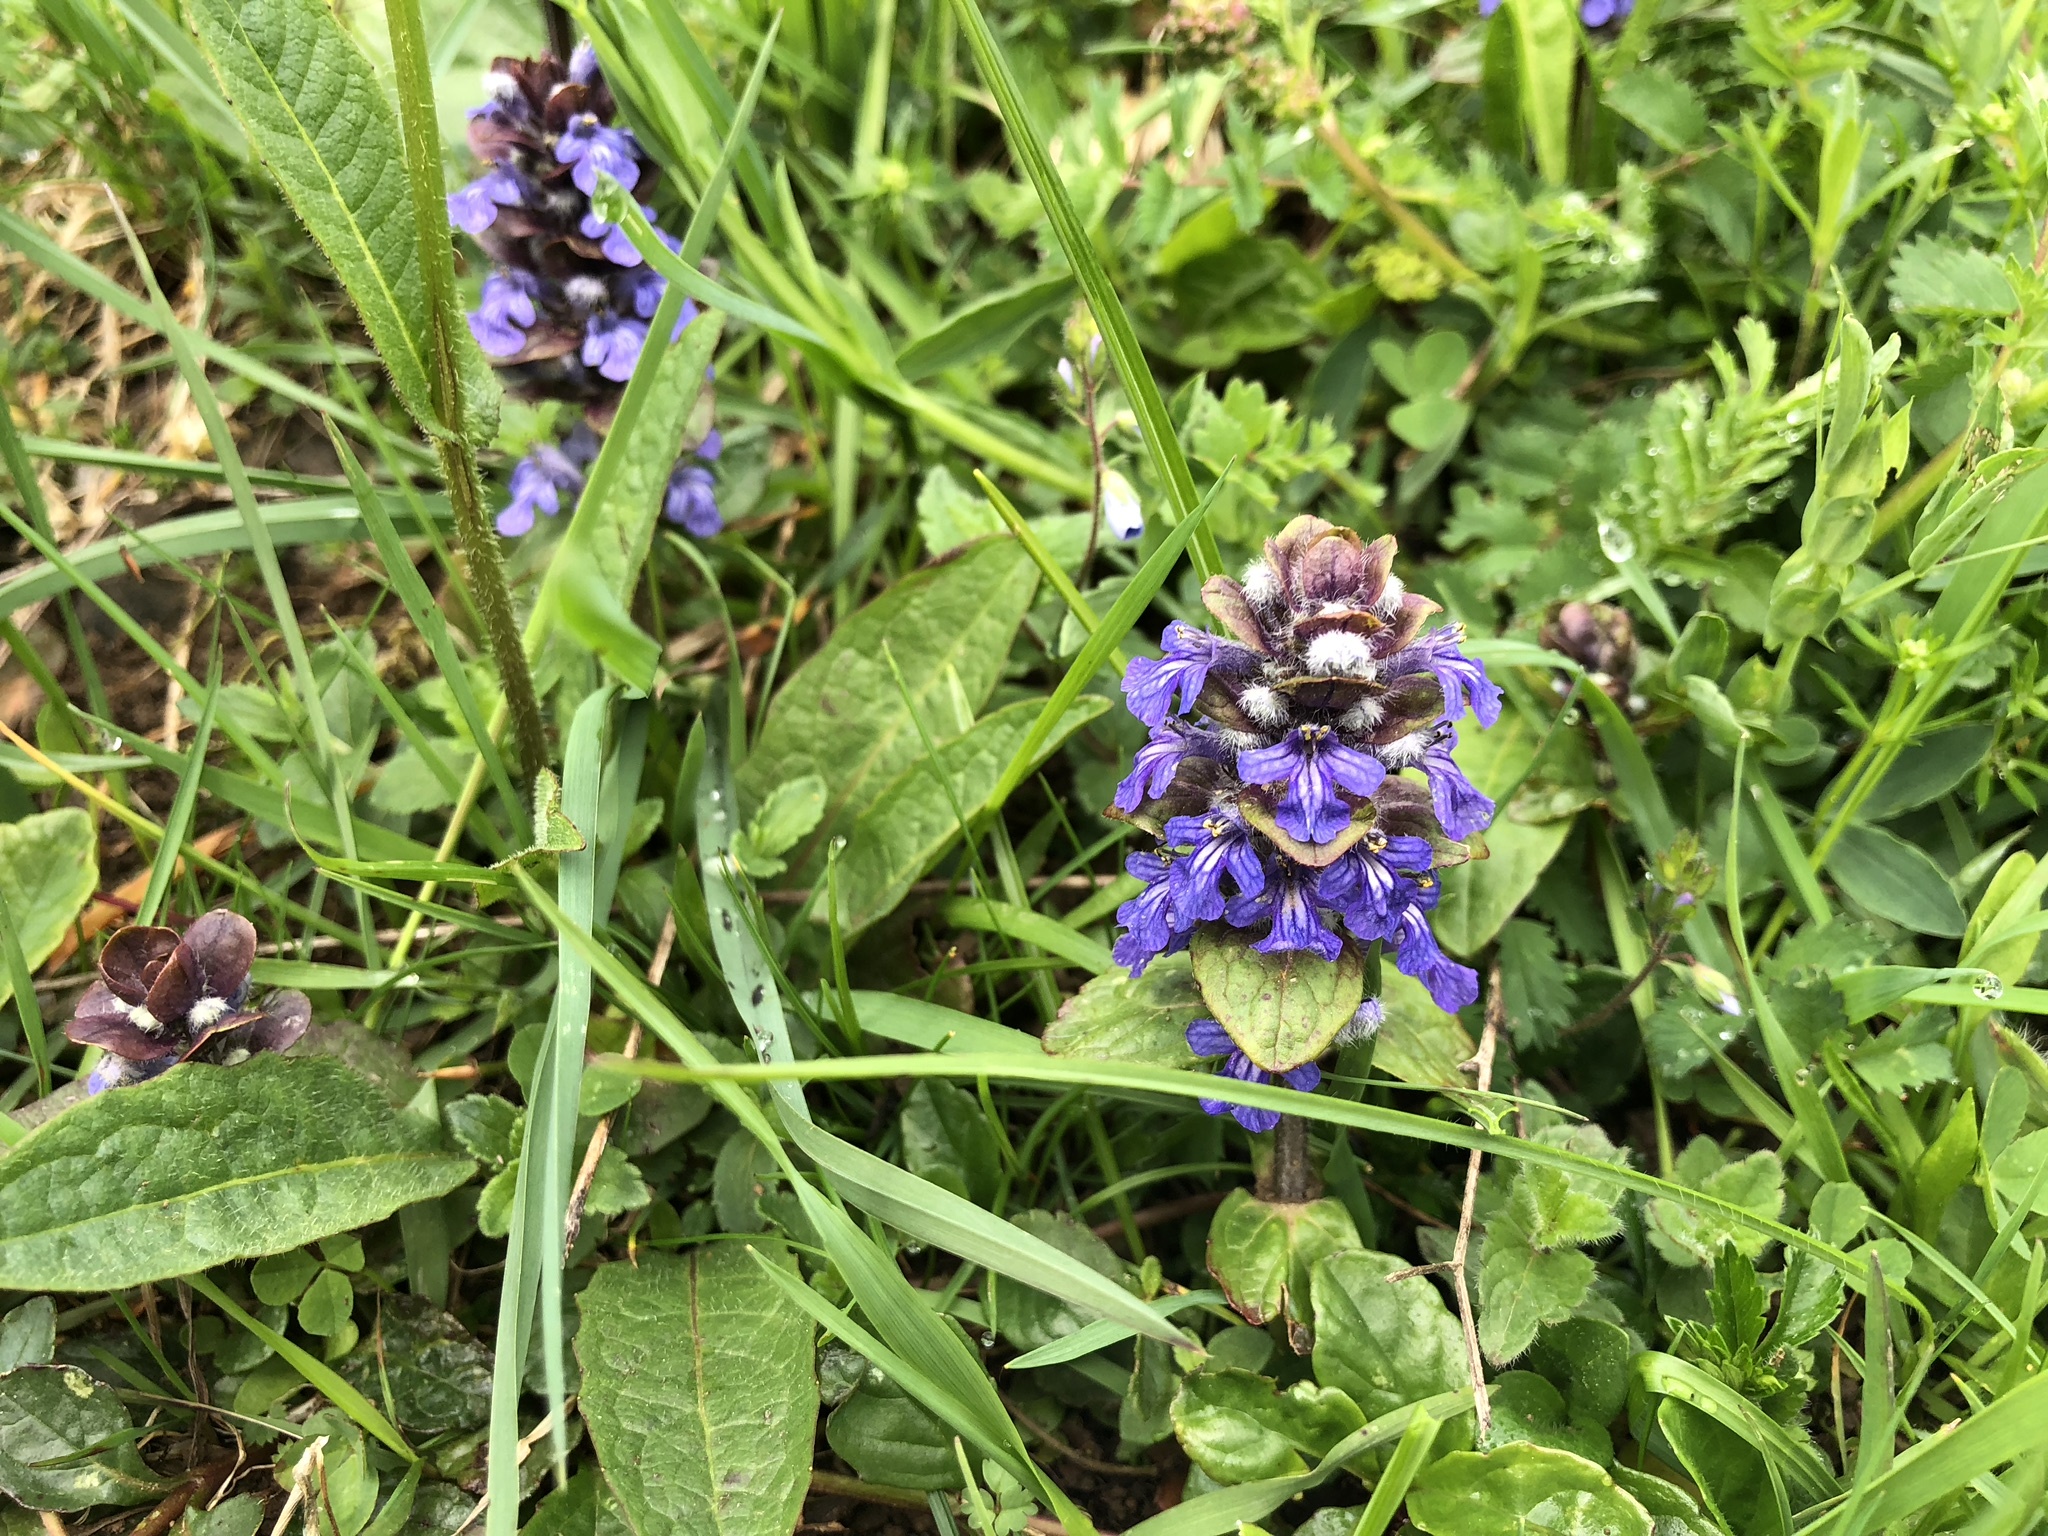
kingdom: Plantae
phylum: Tracheophyta
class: Magnoliopsida
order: Lamiales
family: Lamiaceae
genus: Ajuga
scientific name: Ajuga reptans
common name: Bugle
